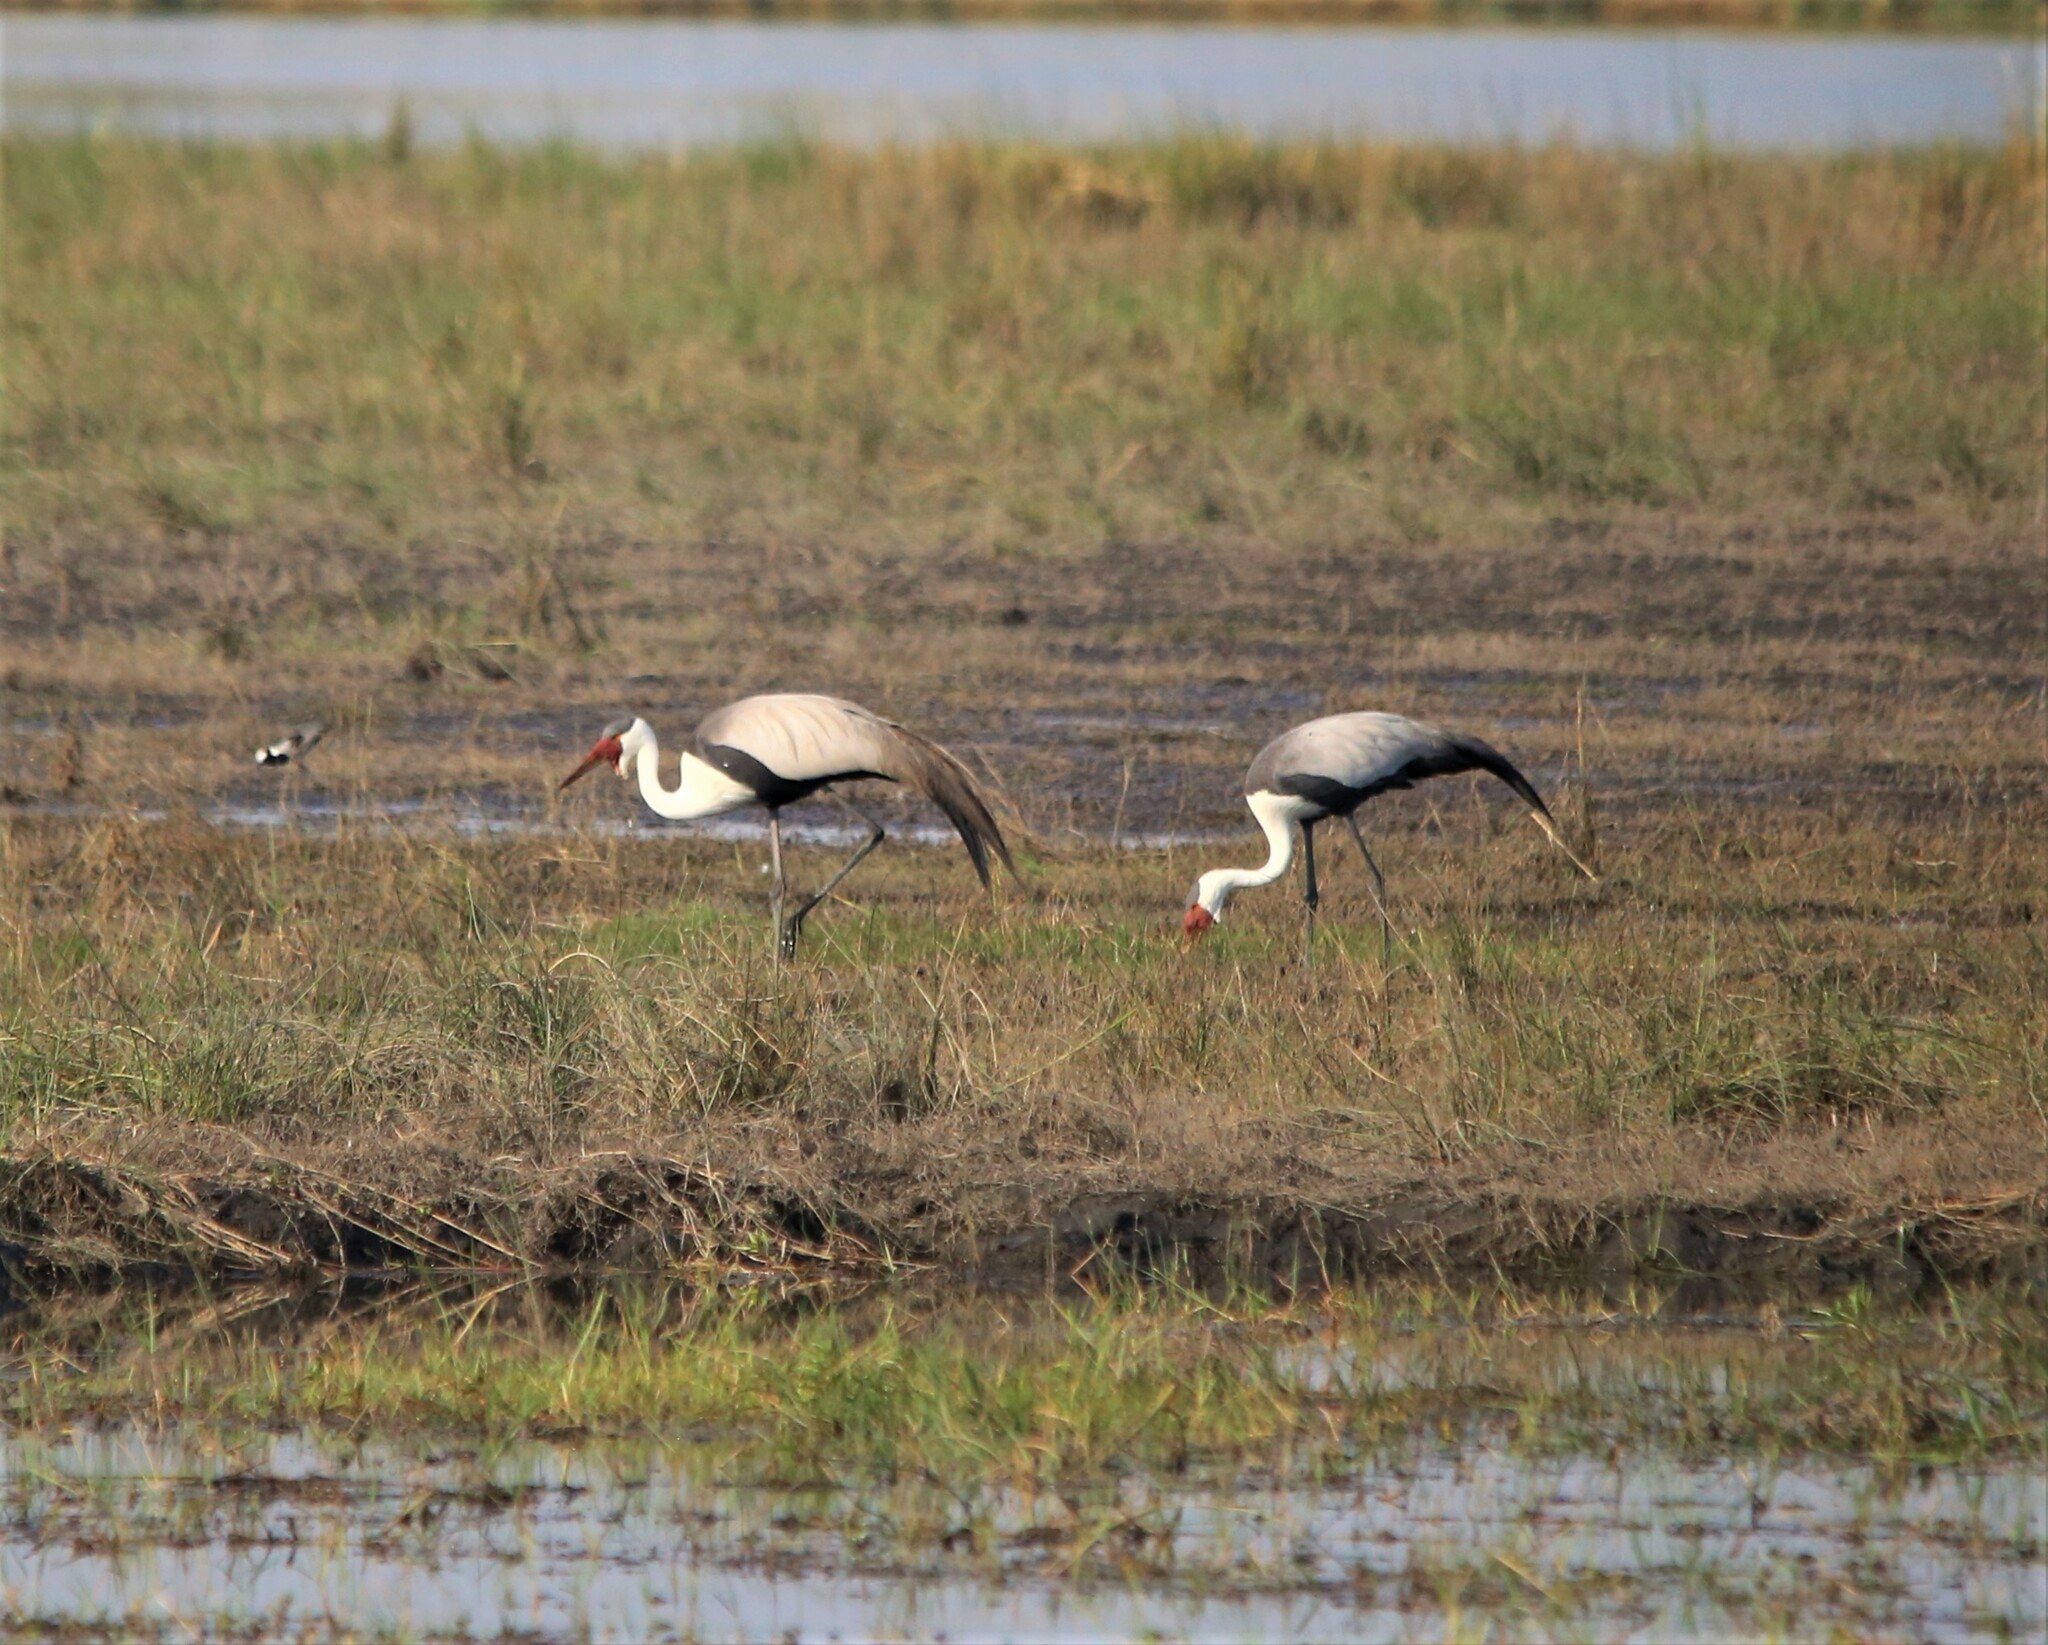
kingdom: Animalia
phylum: Chordata
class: Aves
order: Gruiformes
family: Gruidae
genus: Bugeranus
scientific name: Bugeranus carunculatus
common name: Wattled crane
